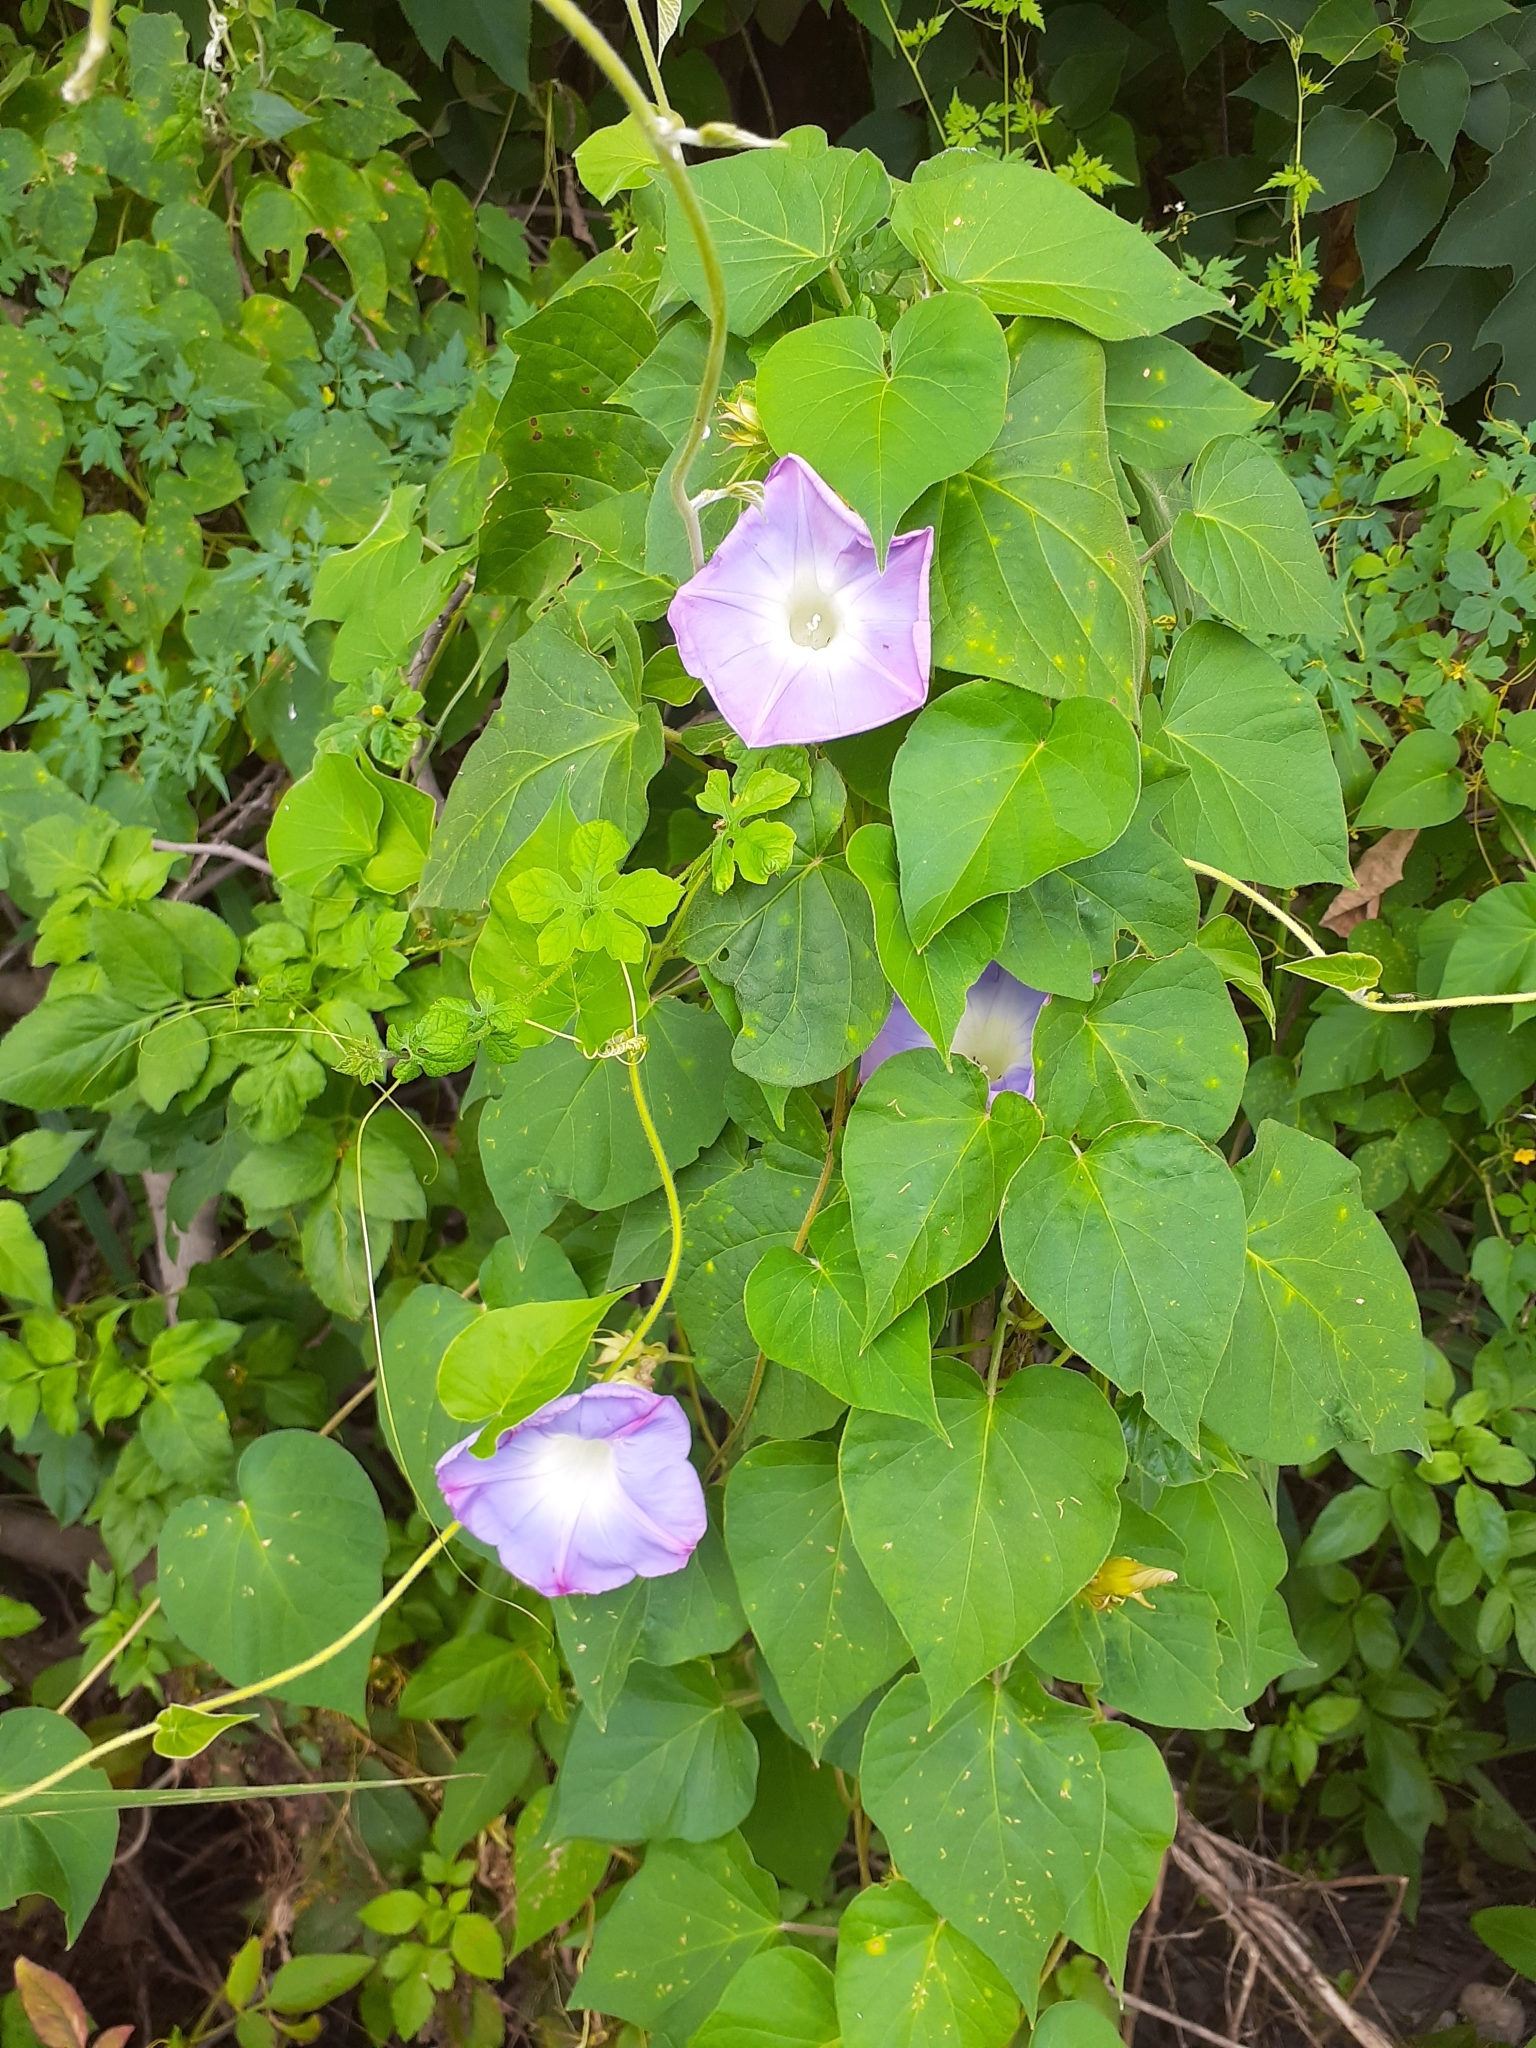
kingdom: Plantae
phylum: Tracheophyta
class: Magnoliopsida
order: Solanales
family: Convolvulaceae
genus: Ipomoea
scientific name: Ipomoea indica
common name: Blue dawnflower
